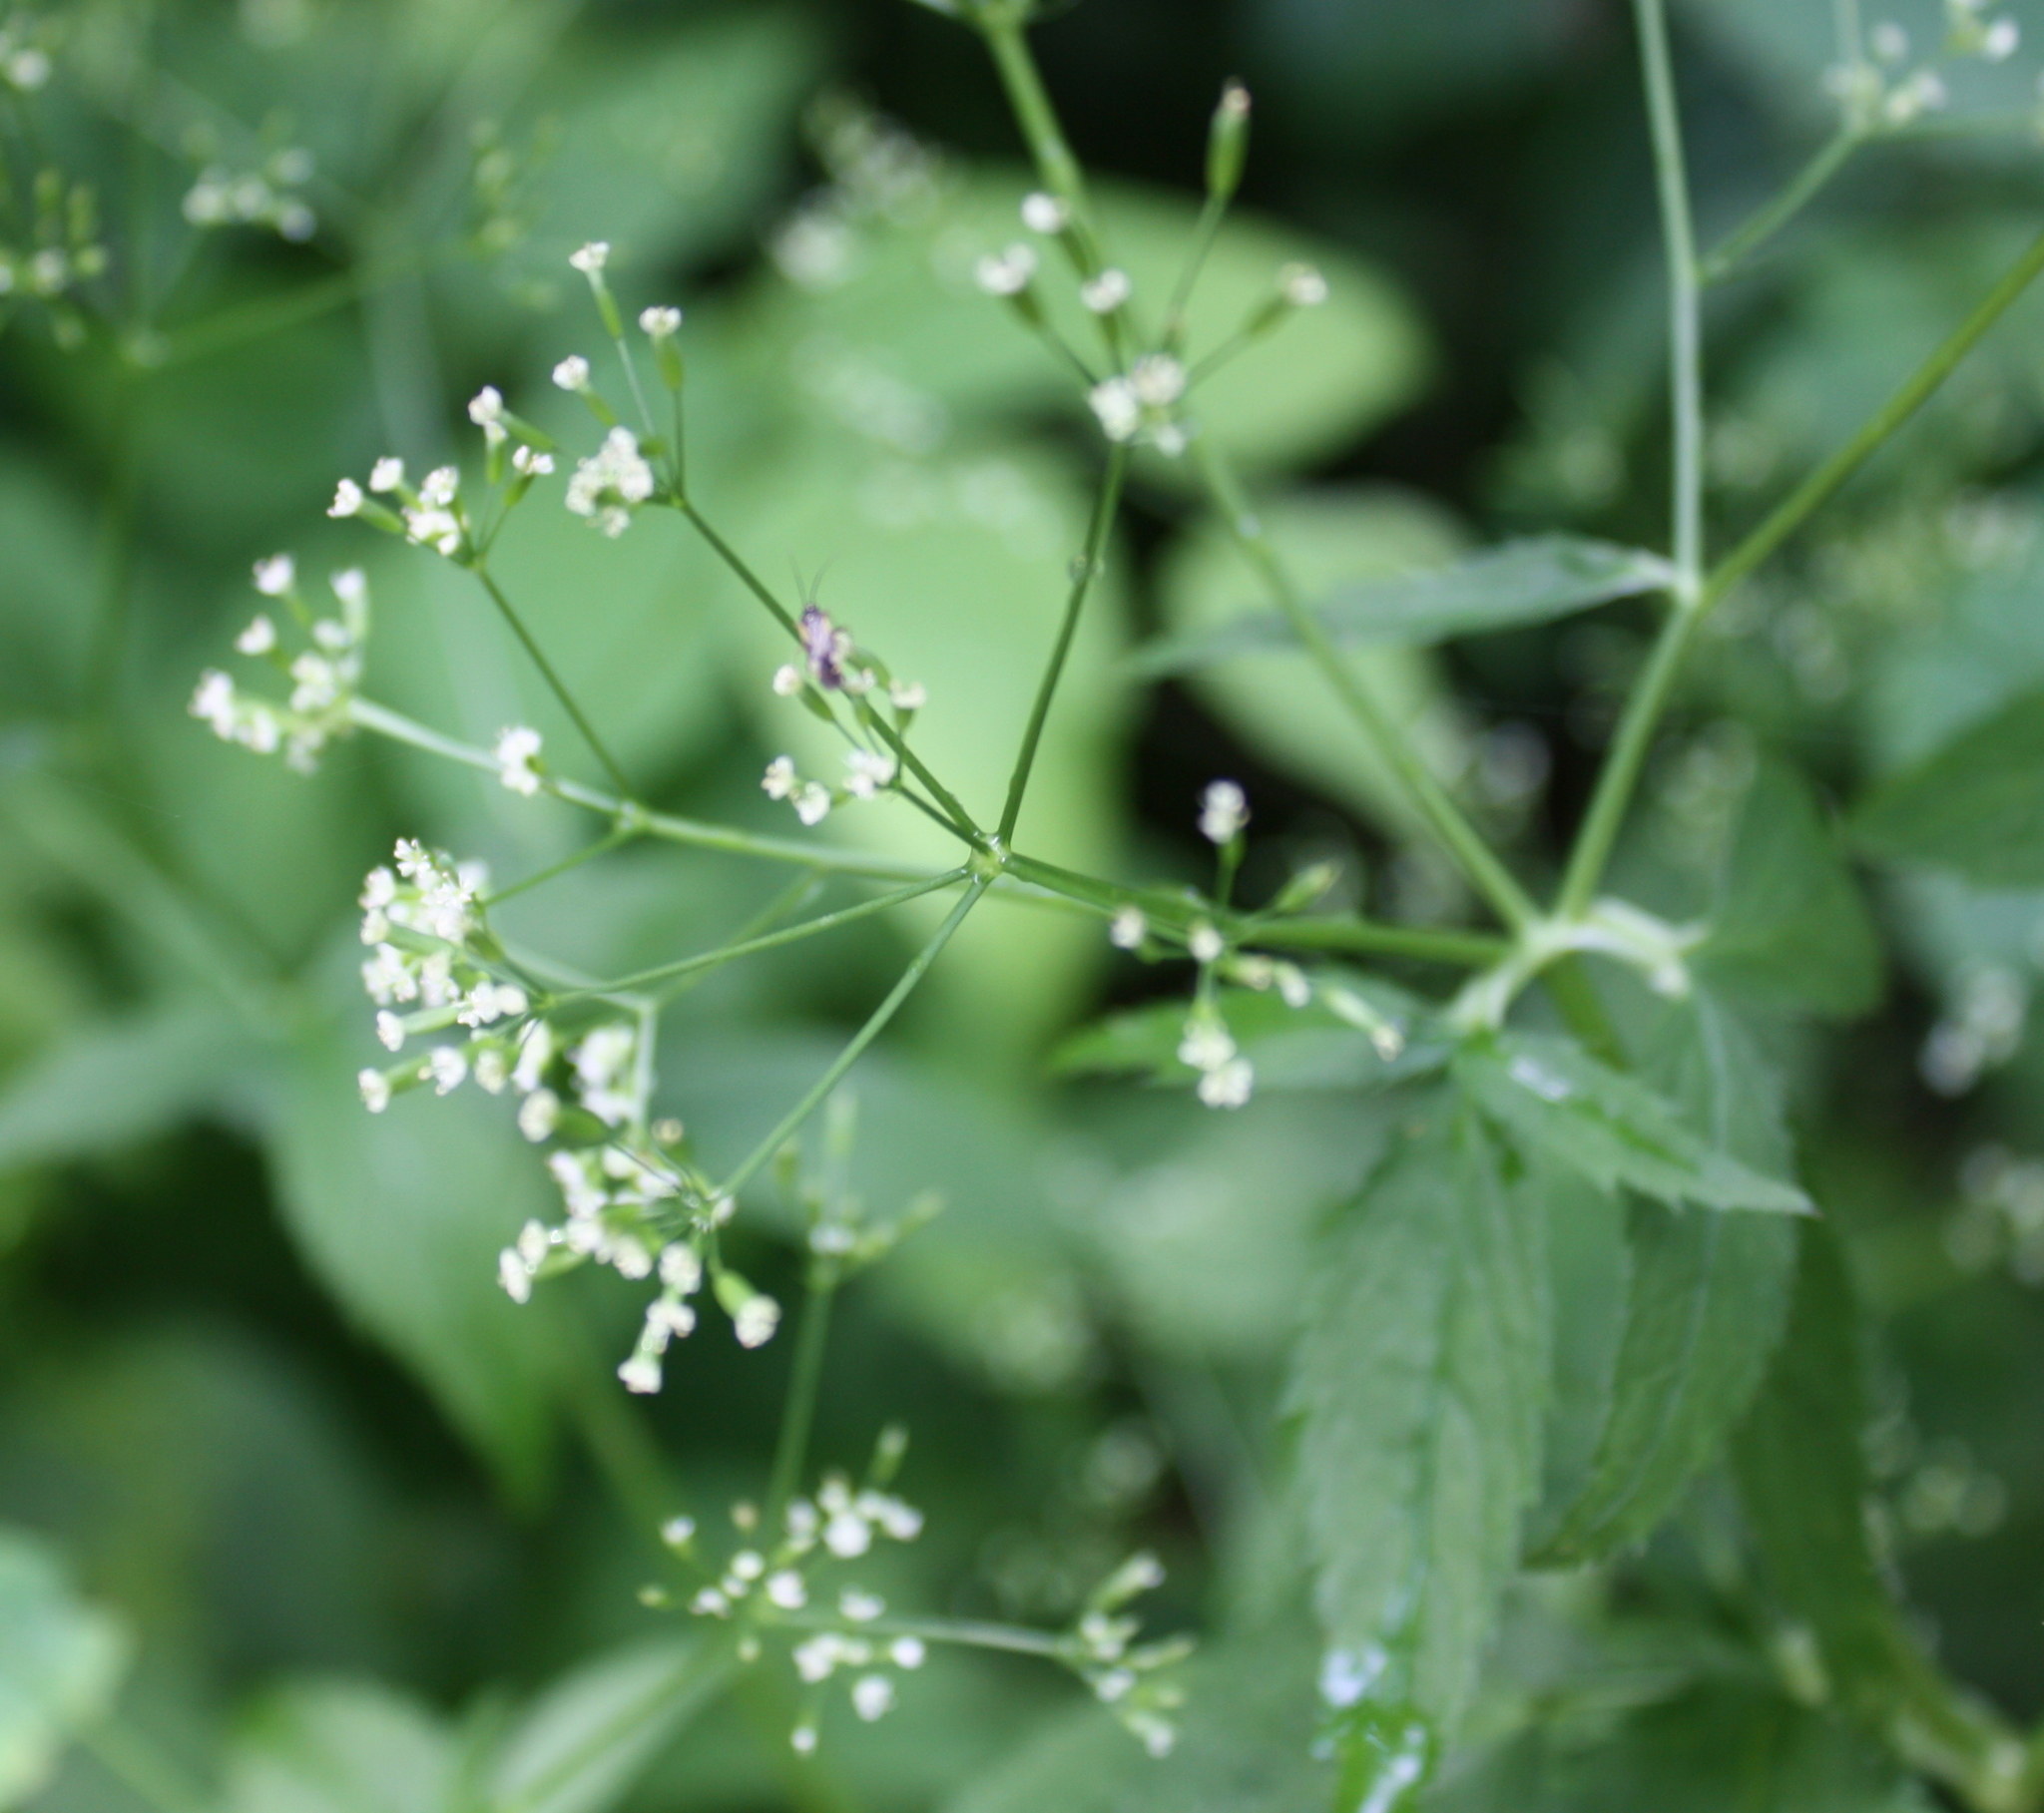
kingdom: Plantae
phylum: Tracheophyta
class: Magnoliopsida
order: Apiales
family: Apiaceae
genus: Cryptotaenia
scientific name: Cryptotaenia canadensis
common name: Honewort
